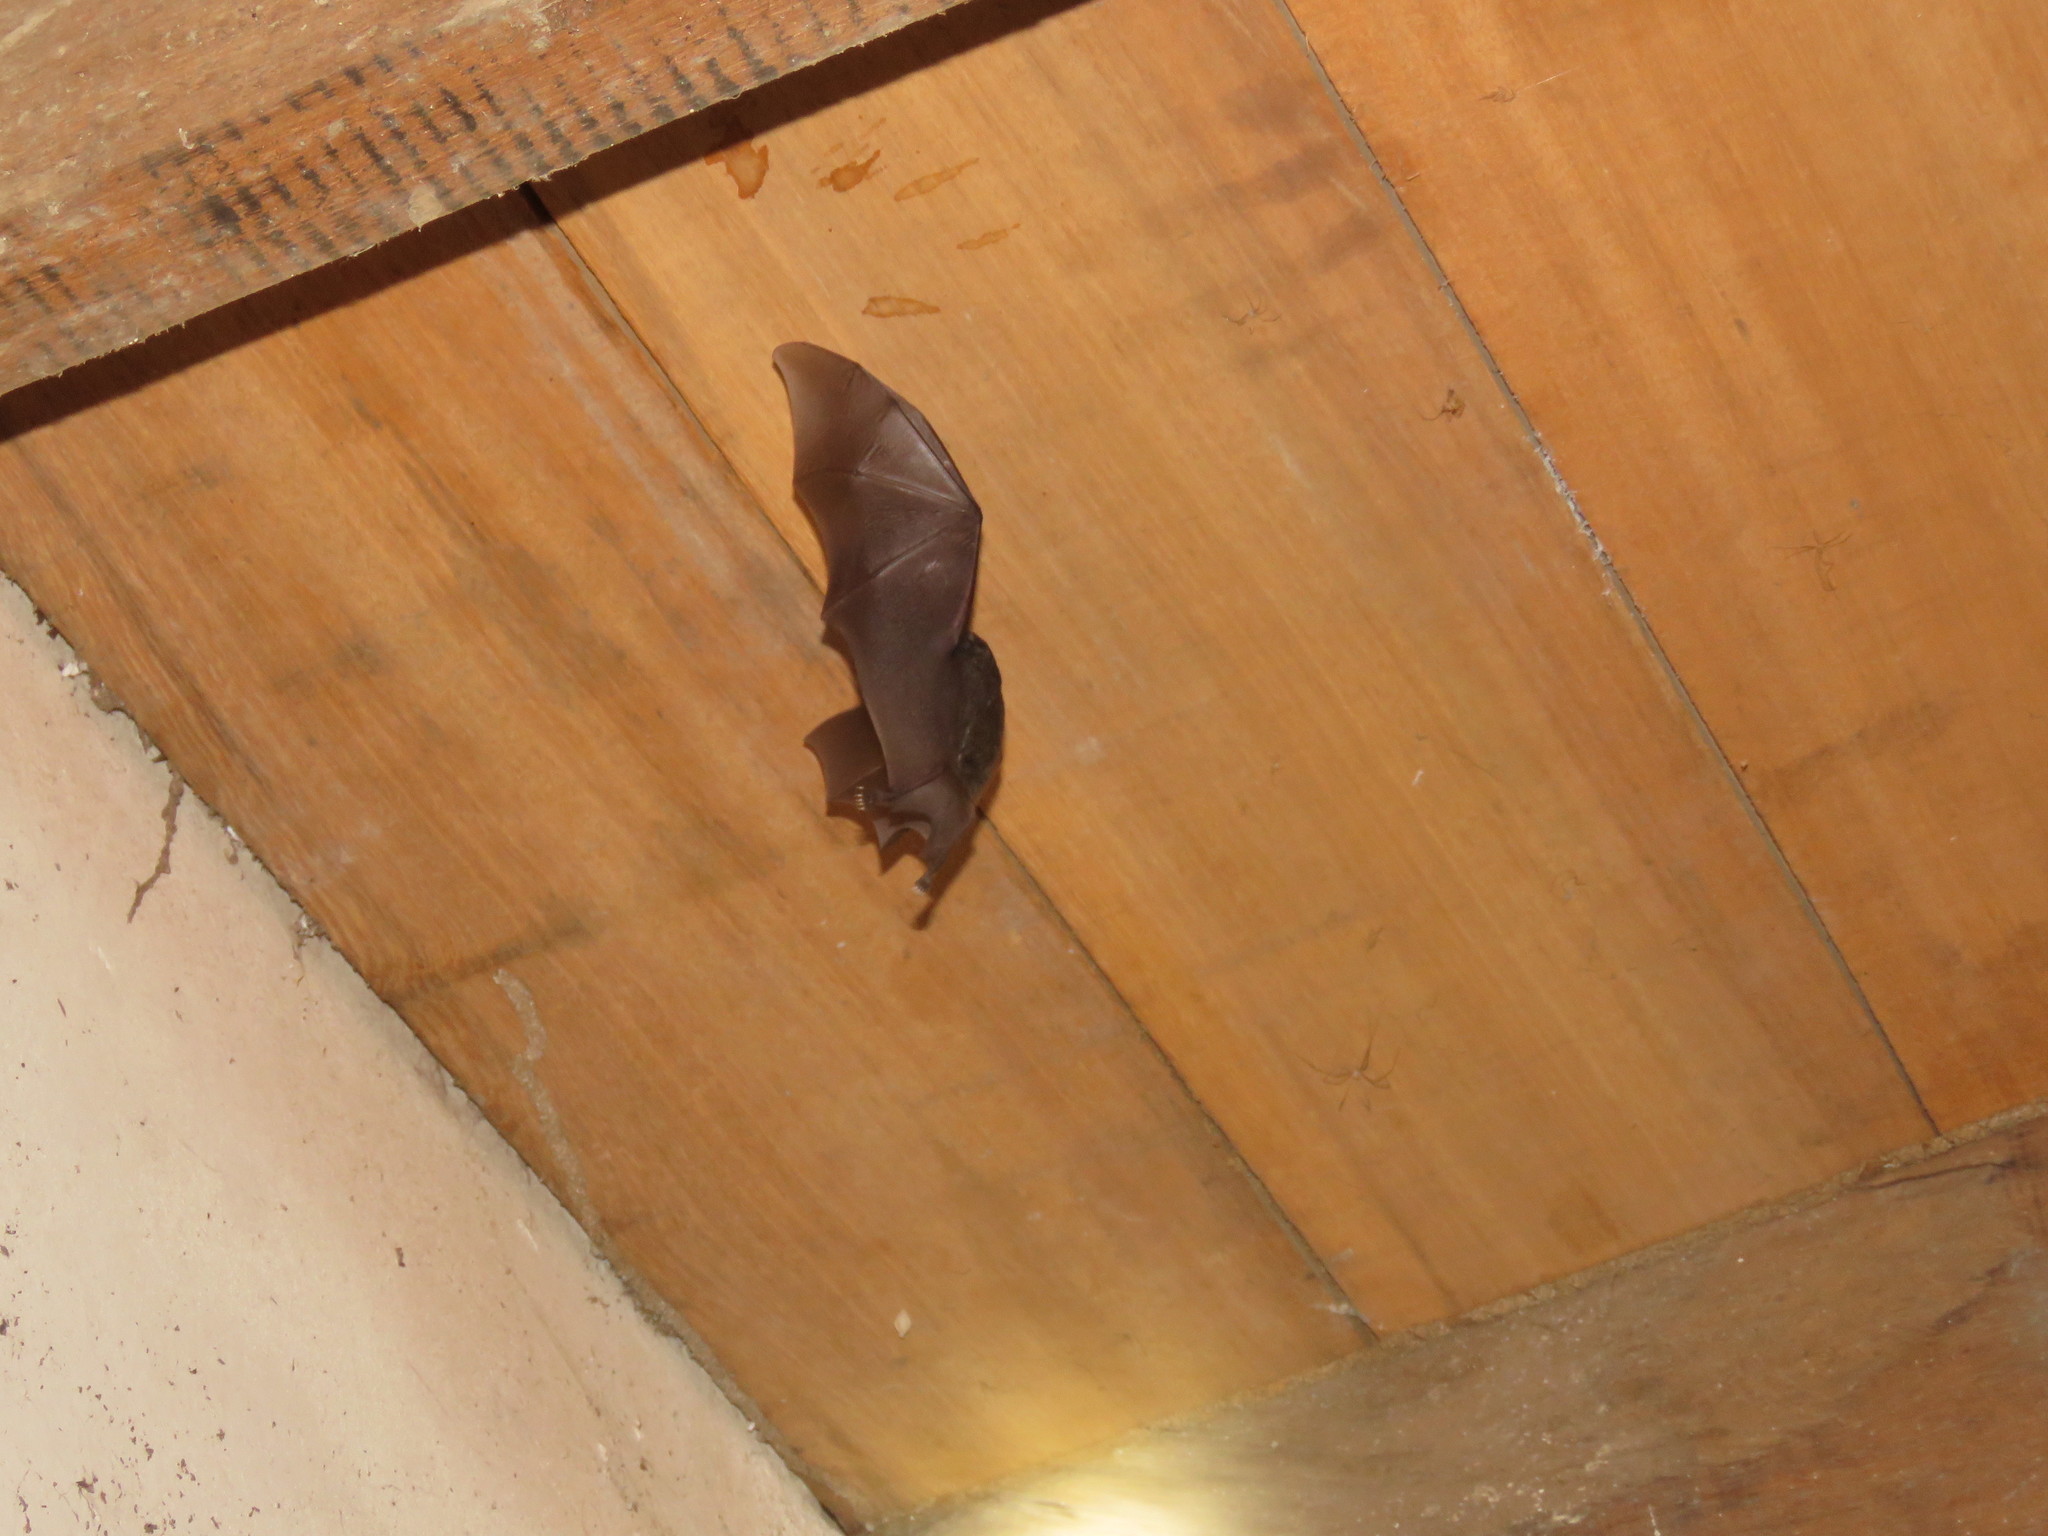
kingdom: Animalia
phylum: Chordata
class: Mammalia
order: Chiroptera
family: Phyllostomidae
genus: Glossophaga
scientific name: Glossophaga soricina
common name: Pallas's long-tongued bat
